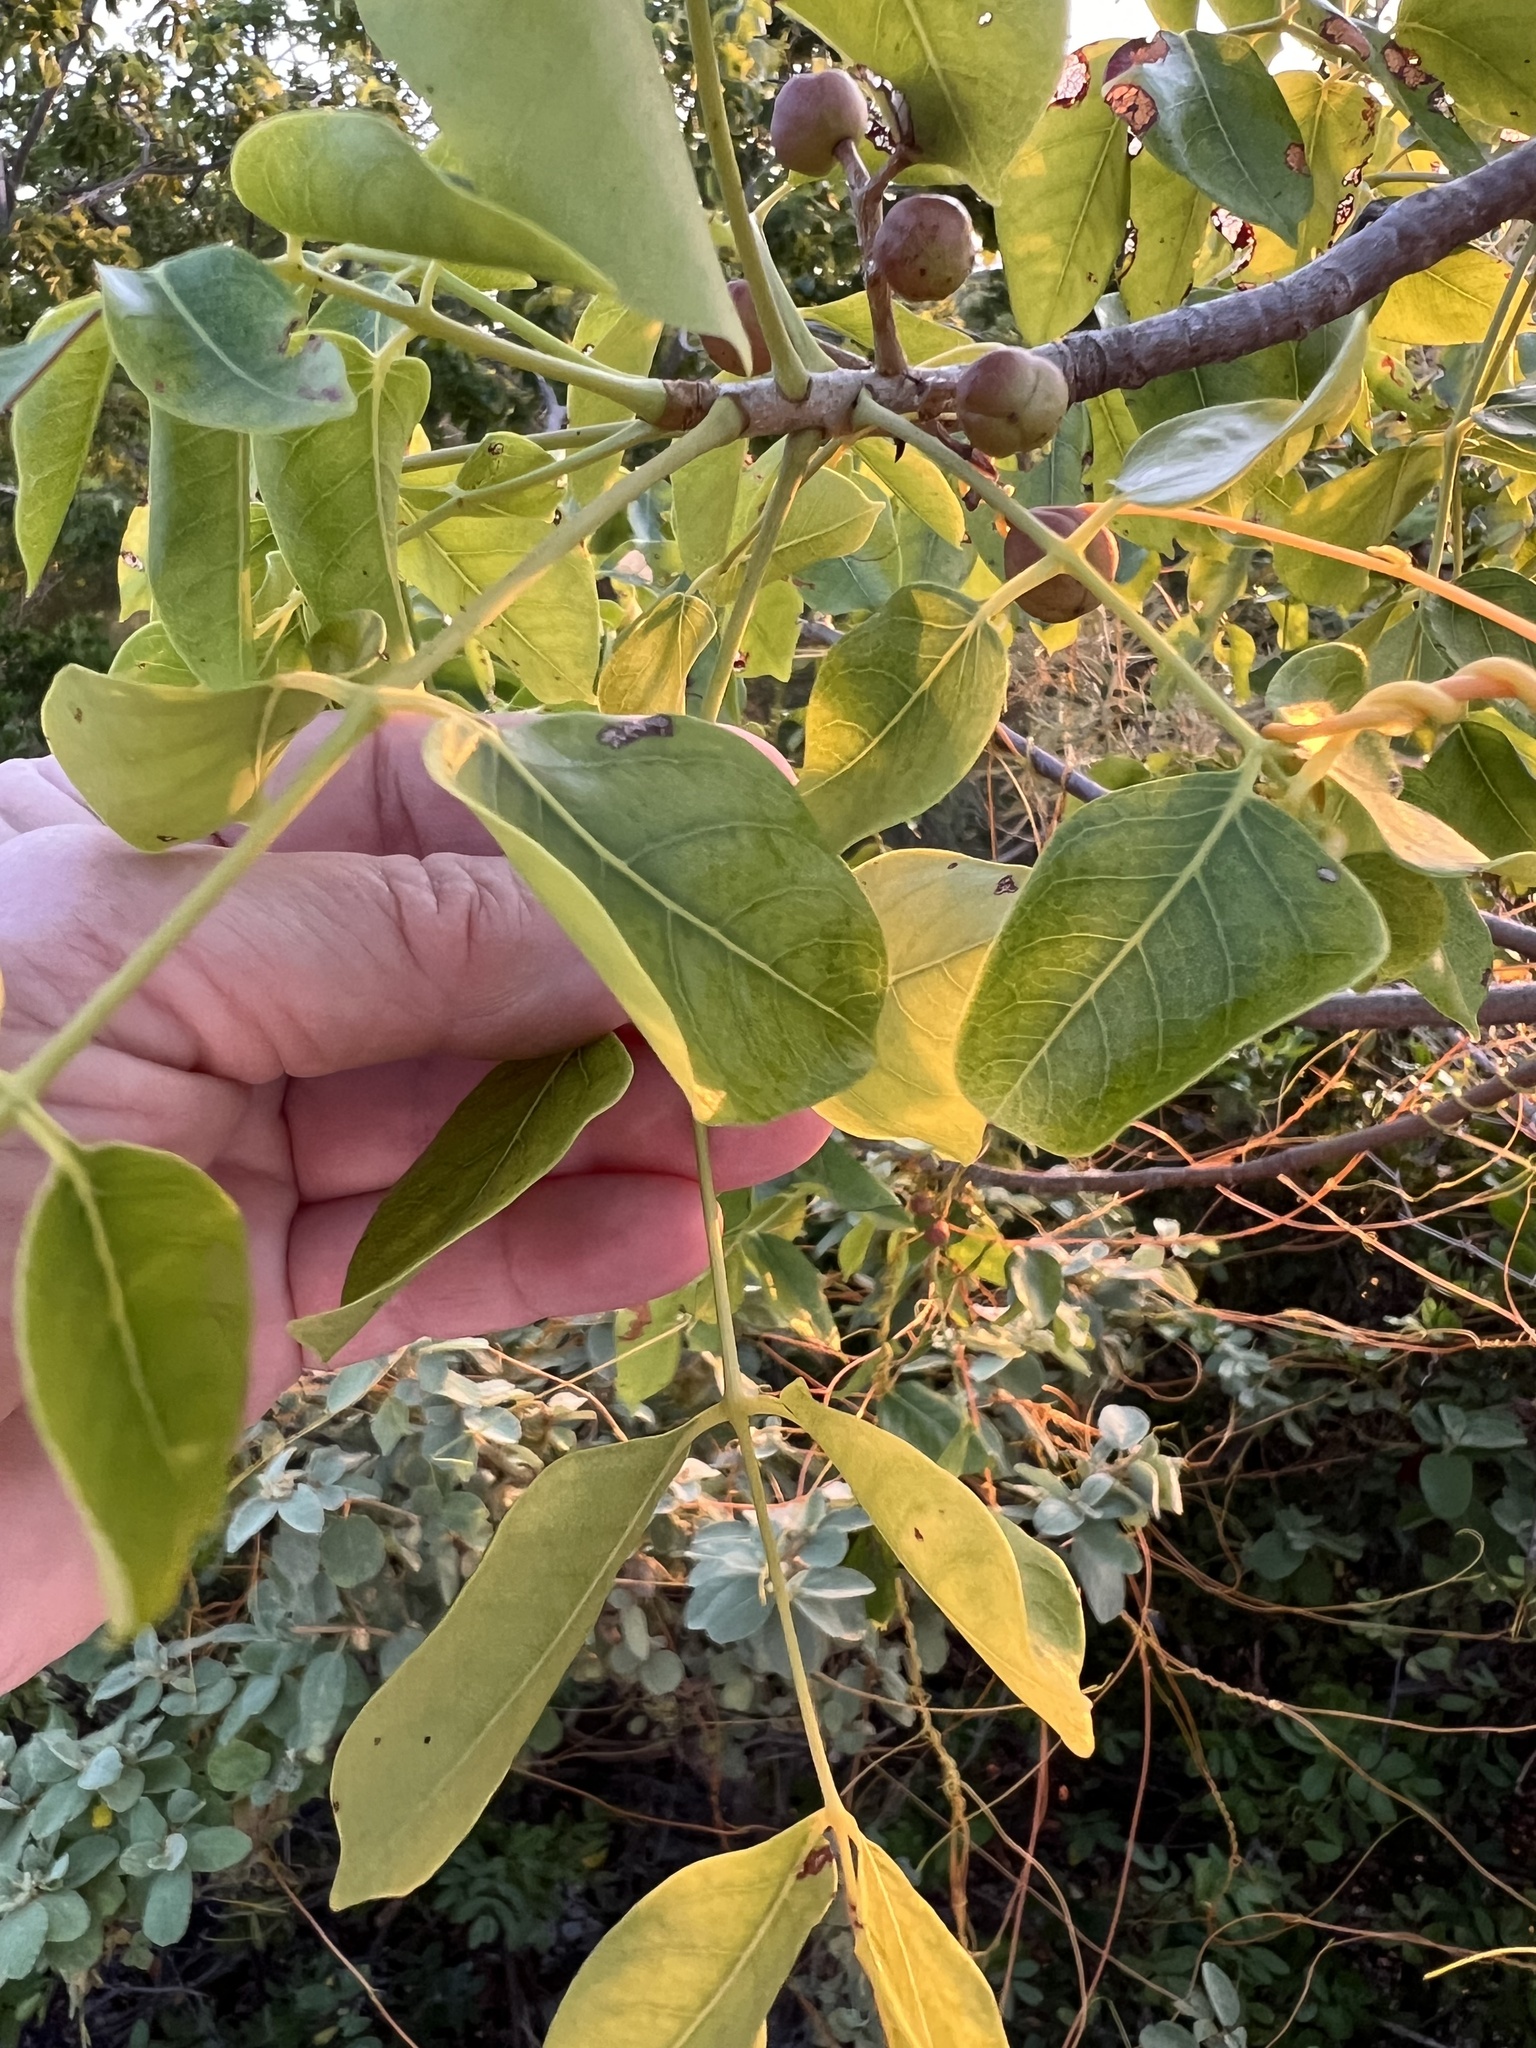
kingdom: Plantae
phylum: Tracheophyta
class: Magnoliopsida
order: Sapindales
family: Burseraceae
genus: Bursera
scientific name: Bursera simaruba
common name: Turpentine tree
